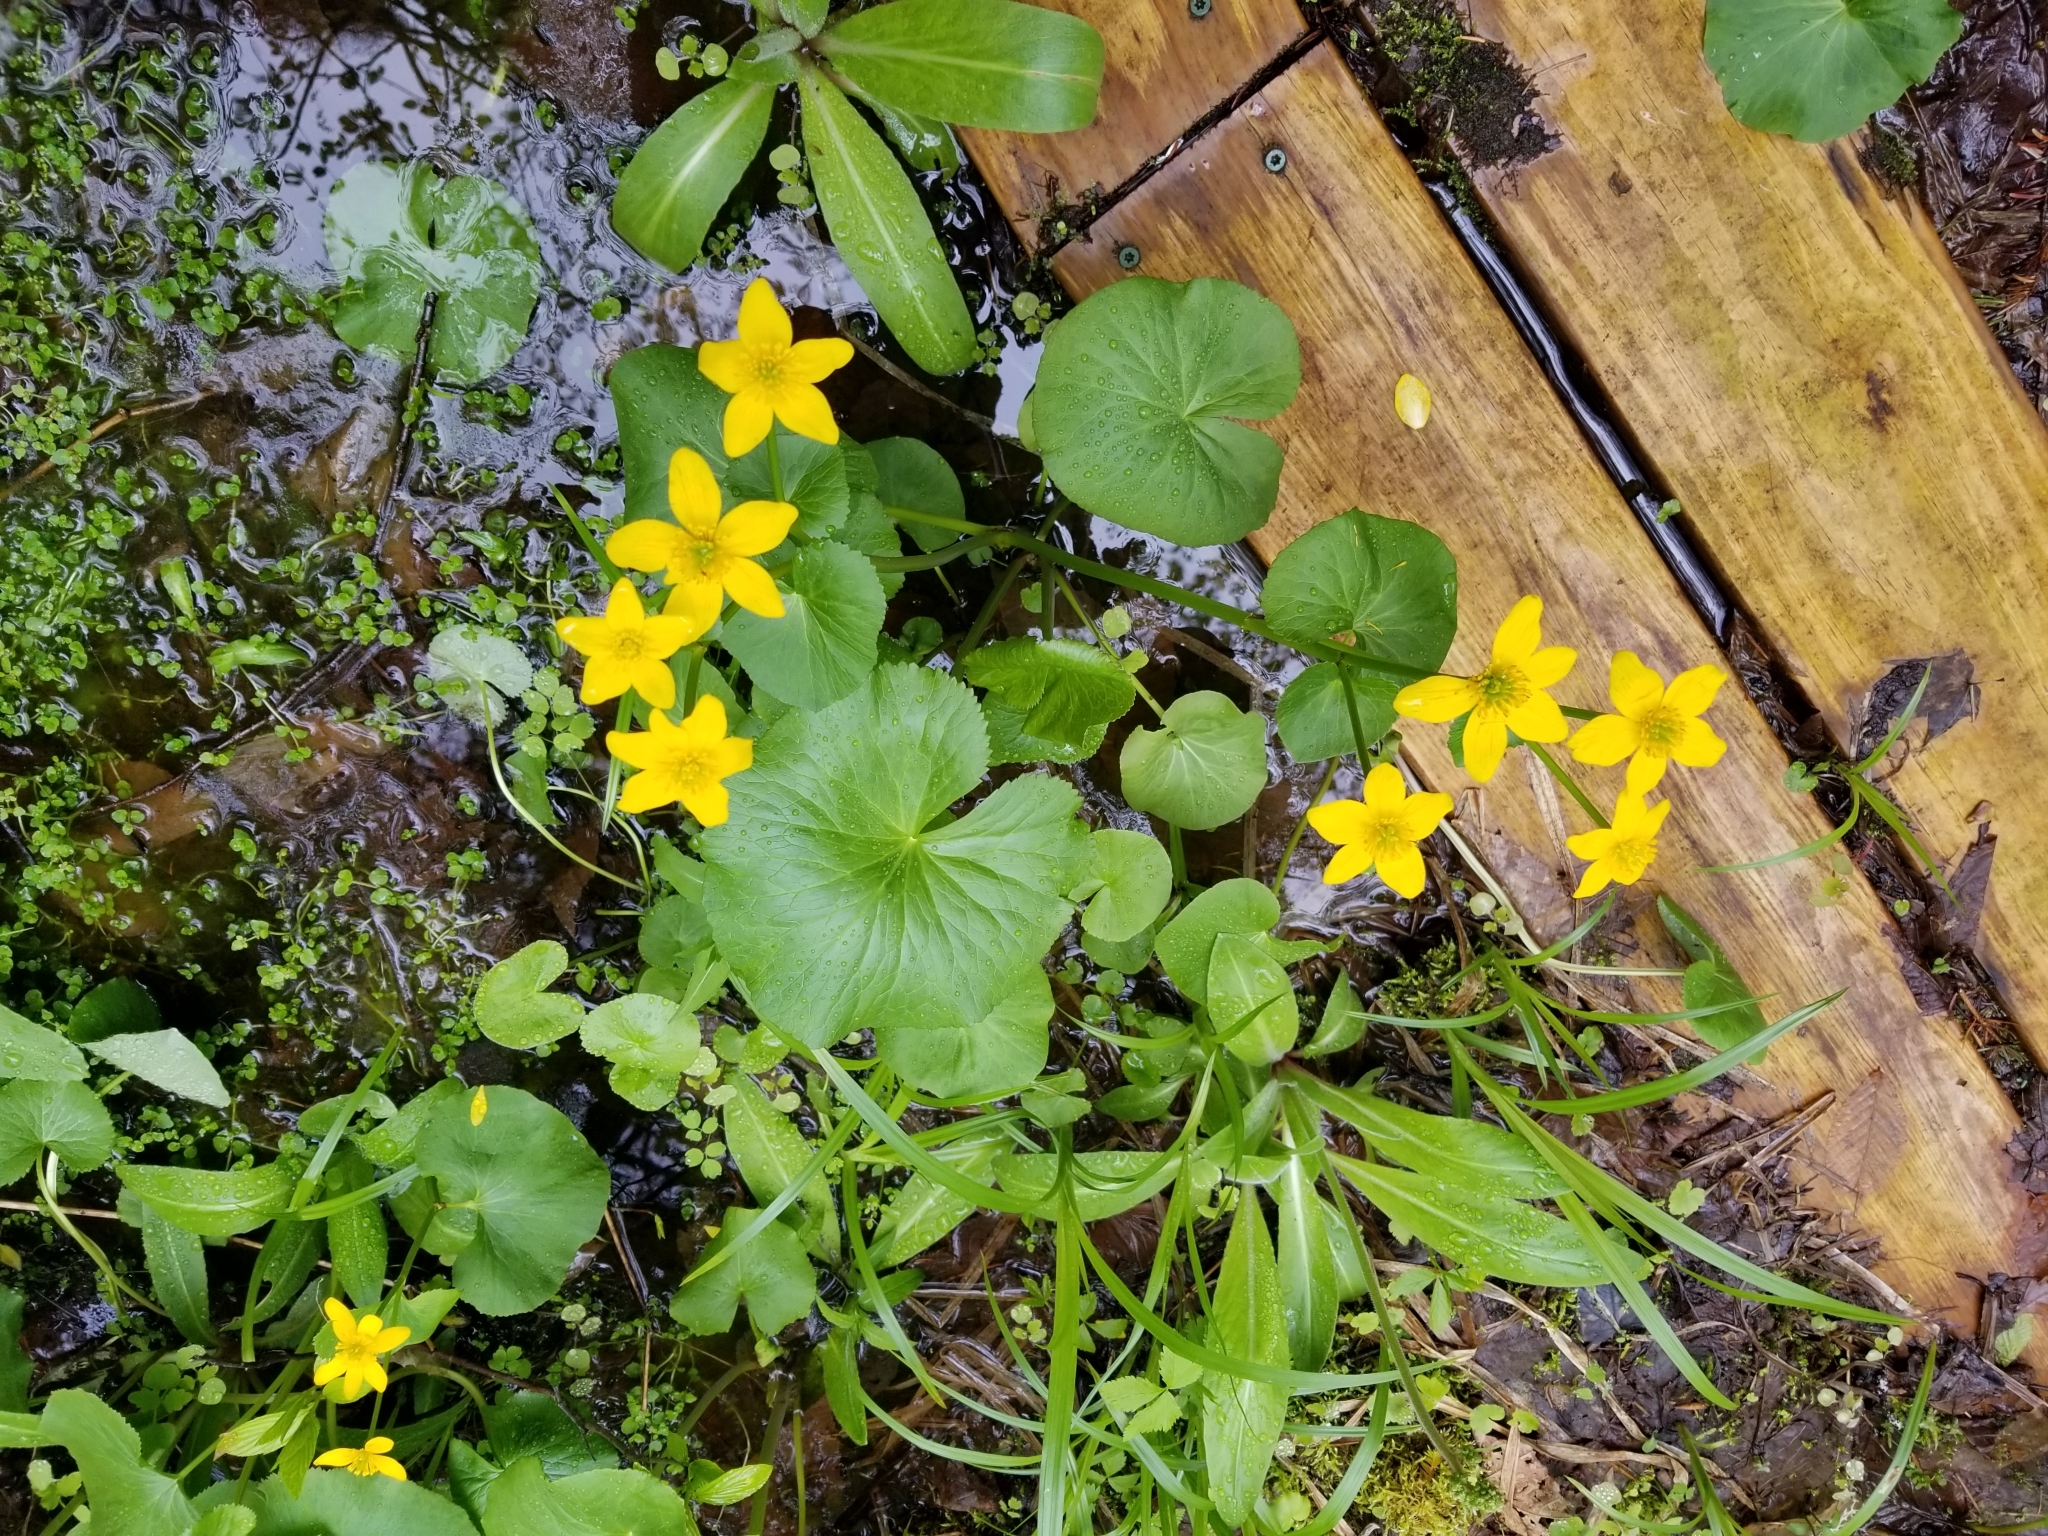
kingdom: Plantae
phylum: Tracheophyta
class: Magnoliopsida
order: Ranunculales
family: Ranunculaceae
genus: Caltha
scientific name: Caltha palustris
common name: Marsh marigold
